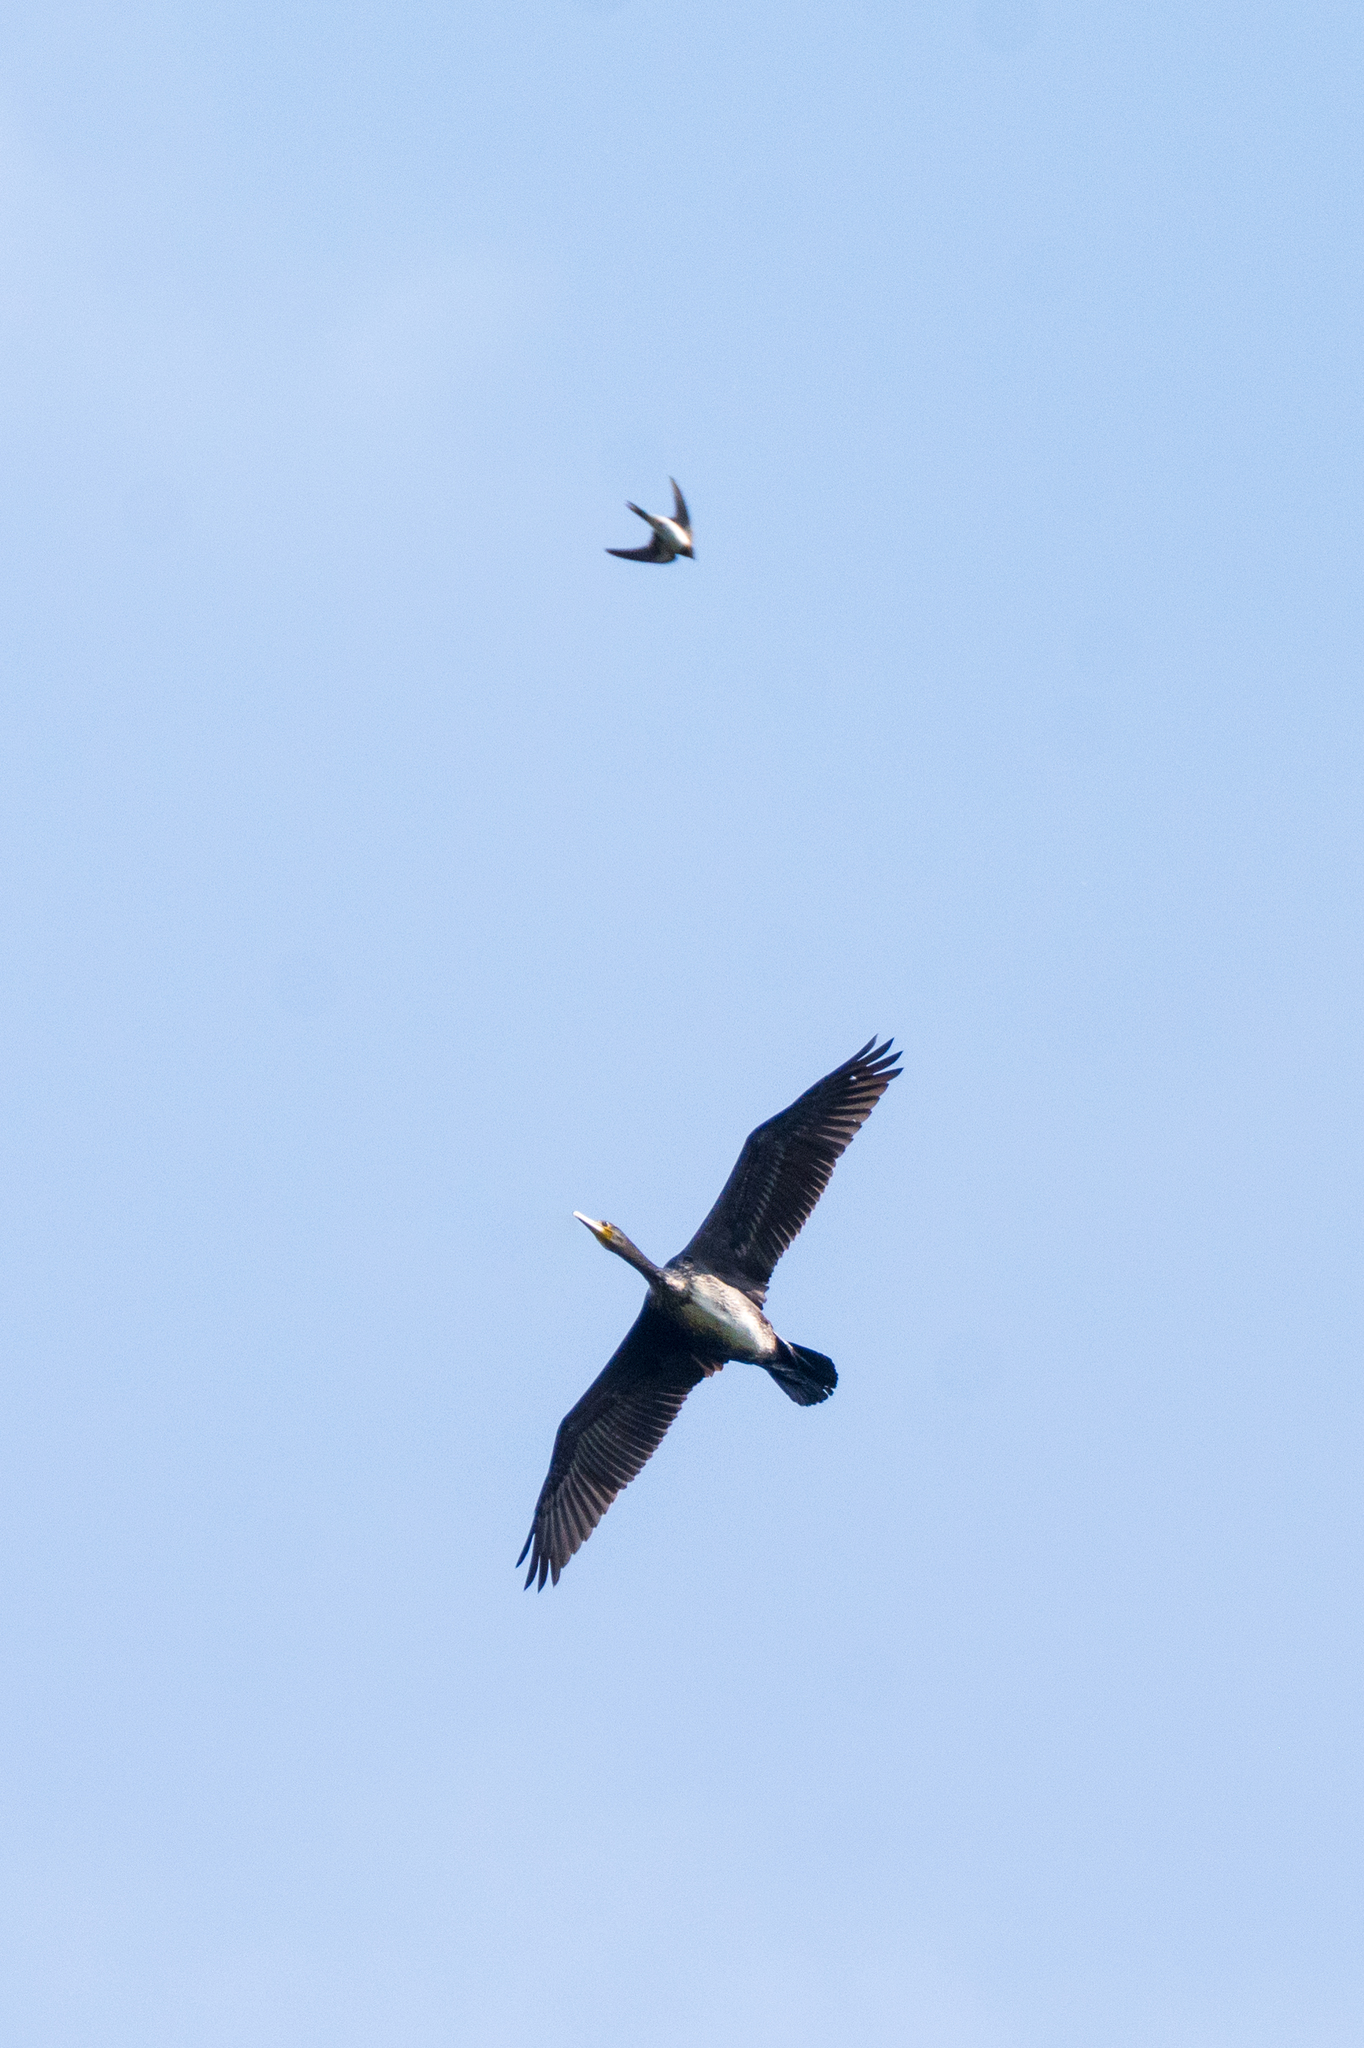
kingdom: Animalia
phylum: Chordata
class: Aves
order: Suliformes
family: Phalacrocoracidae
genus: Phalacrocorax
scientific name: Phalacrocorax carbo
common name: Great cormorant
